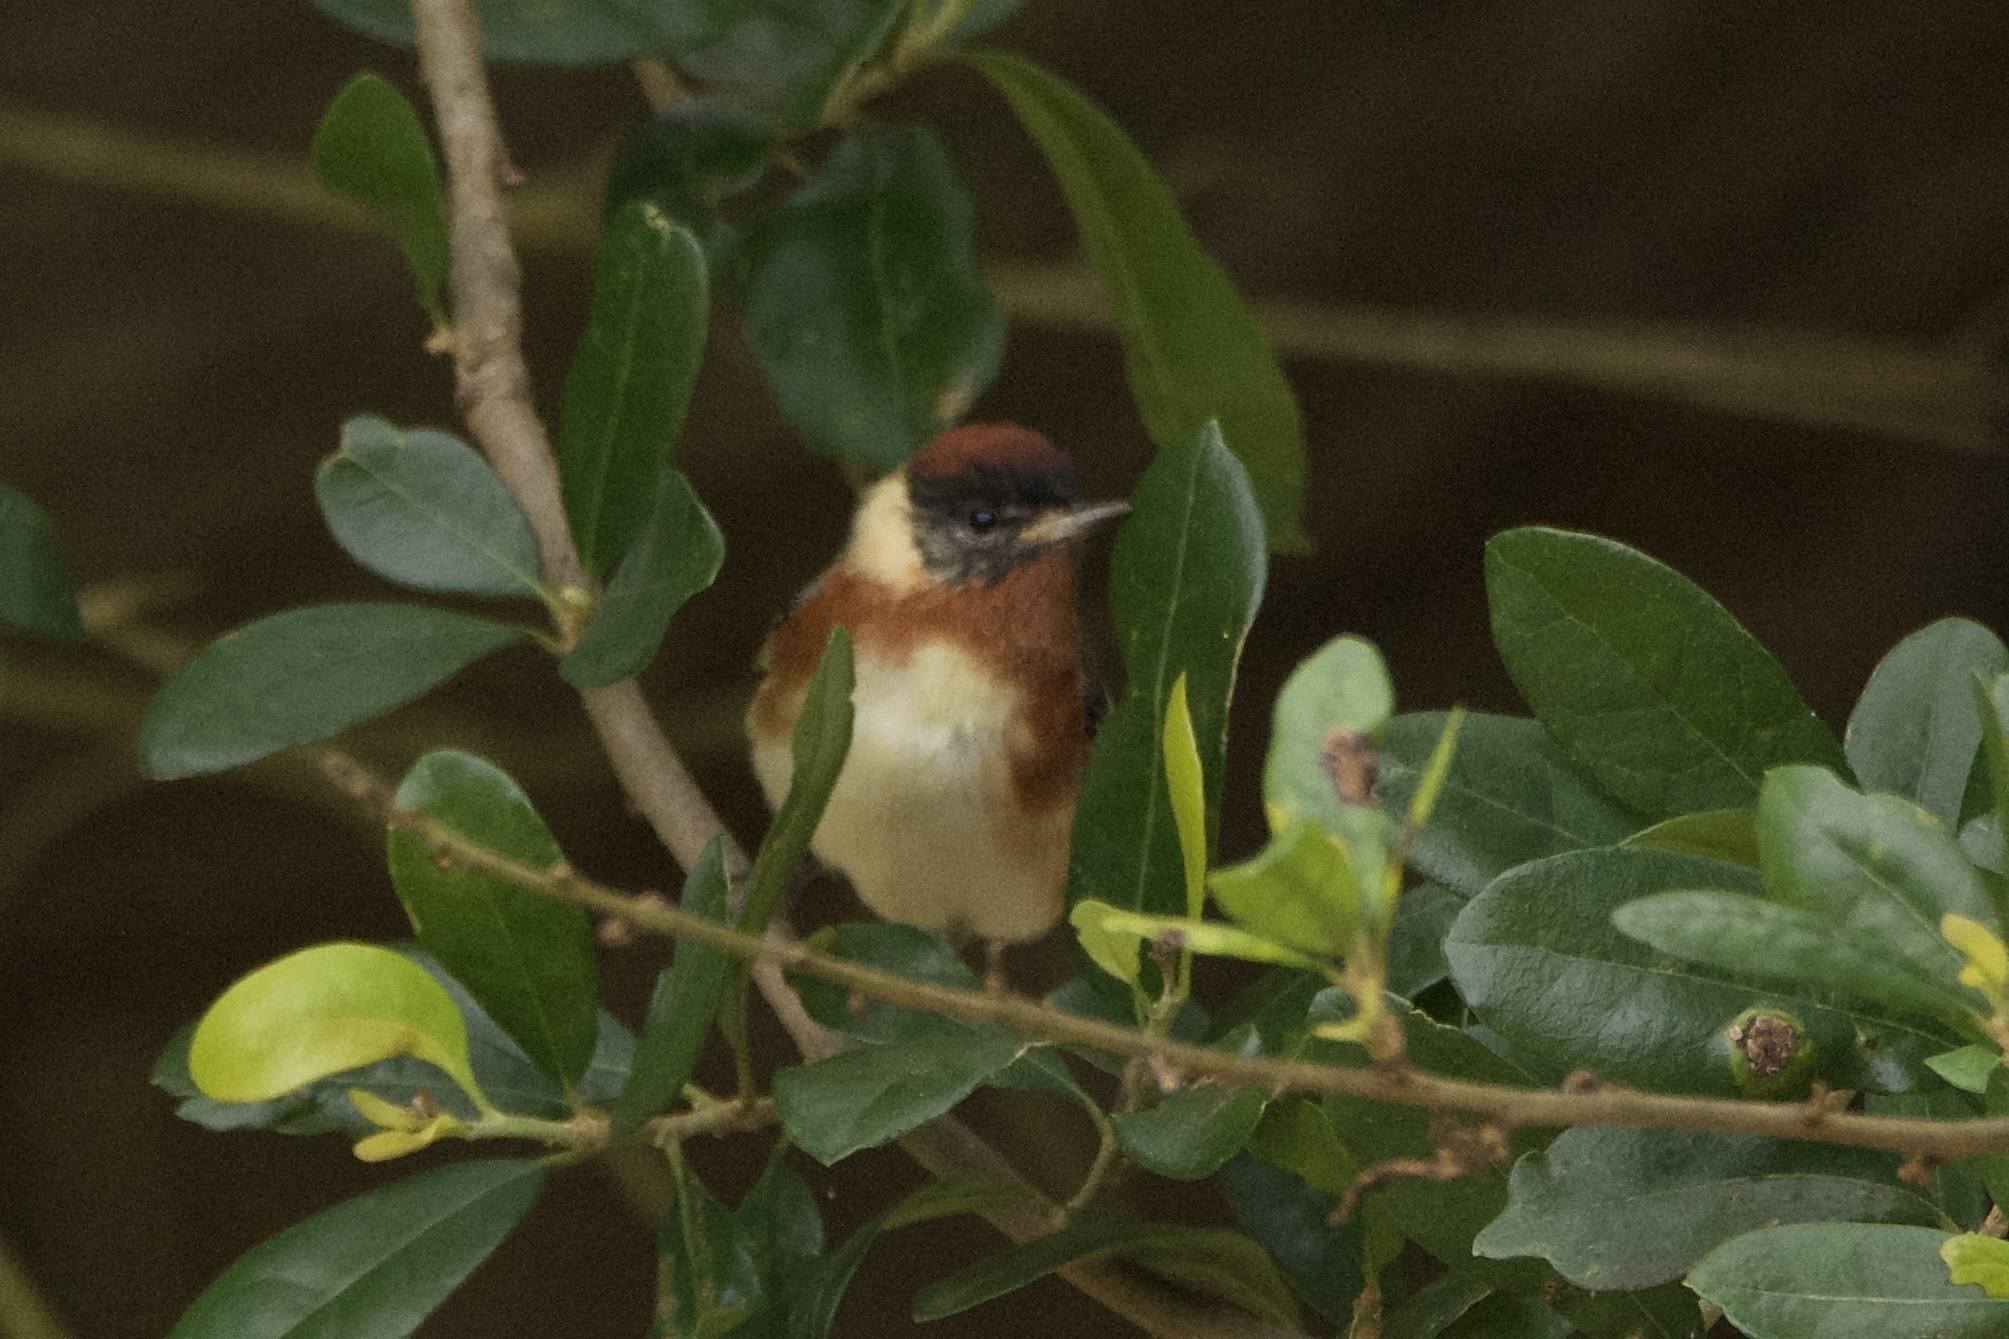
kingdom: Animalia
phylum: Chordata
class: Aves
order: Passeriformes
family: Parulidae
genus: Setophaga
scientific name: Setophaga castanea
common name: Bay-breasted warbler
